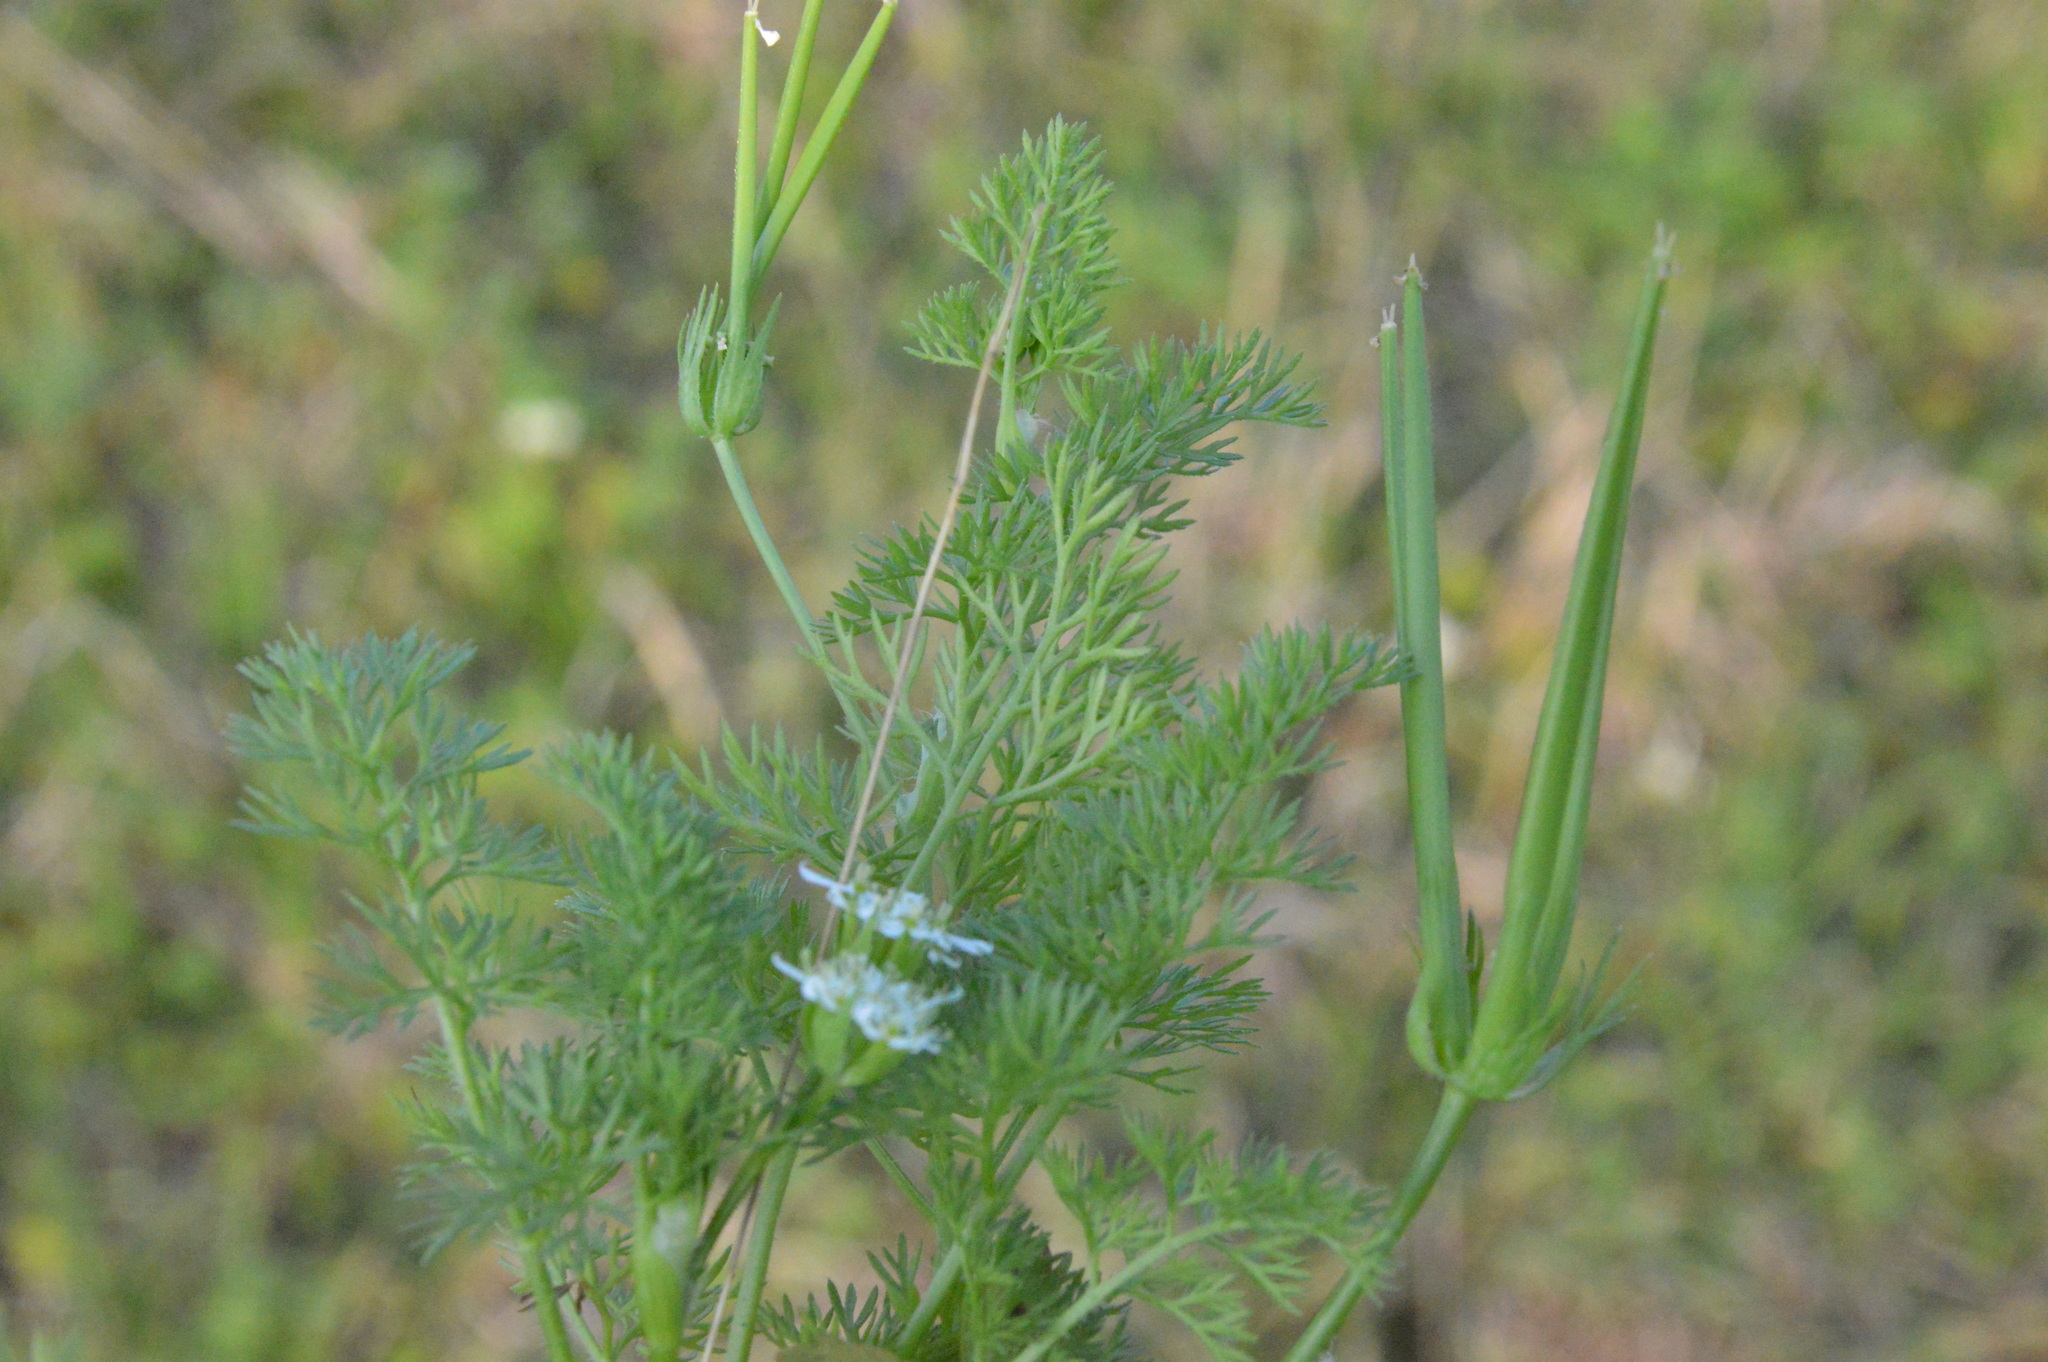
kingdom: Plantae
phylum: Tracheophyta
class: Magnoliopsida
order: Apiales
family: Apiaceae
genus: Scandix
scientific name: Scandix pecten-veneris
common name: Shepherd's-needle
